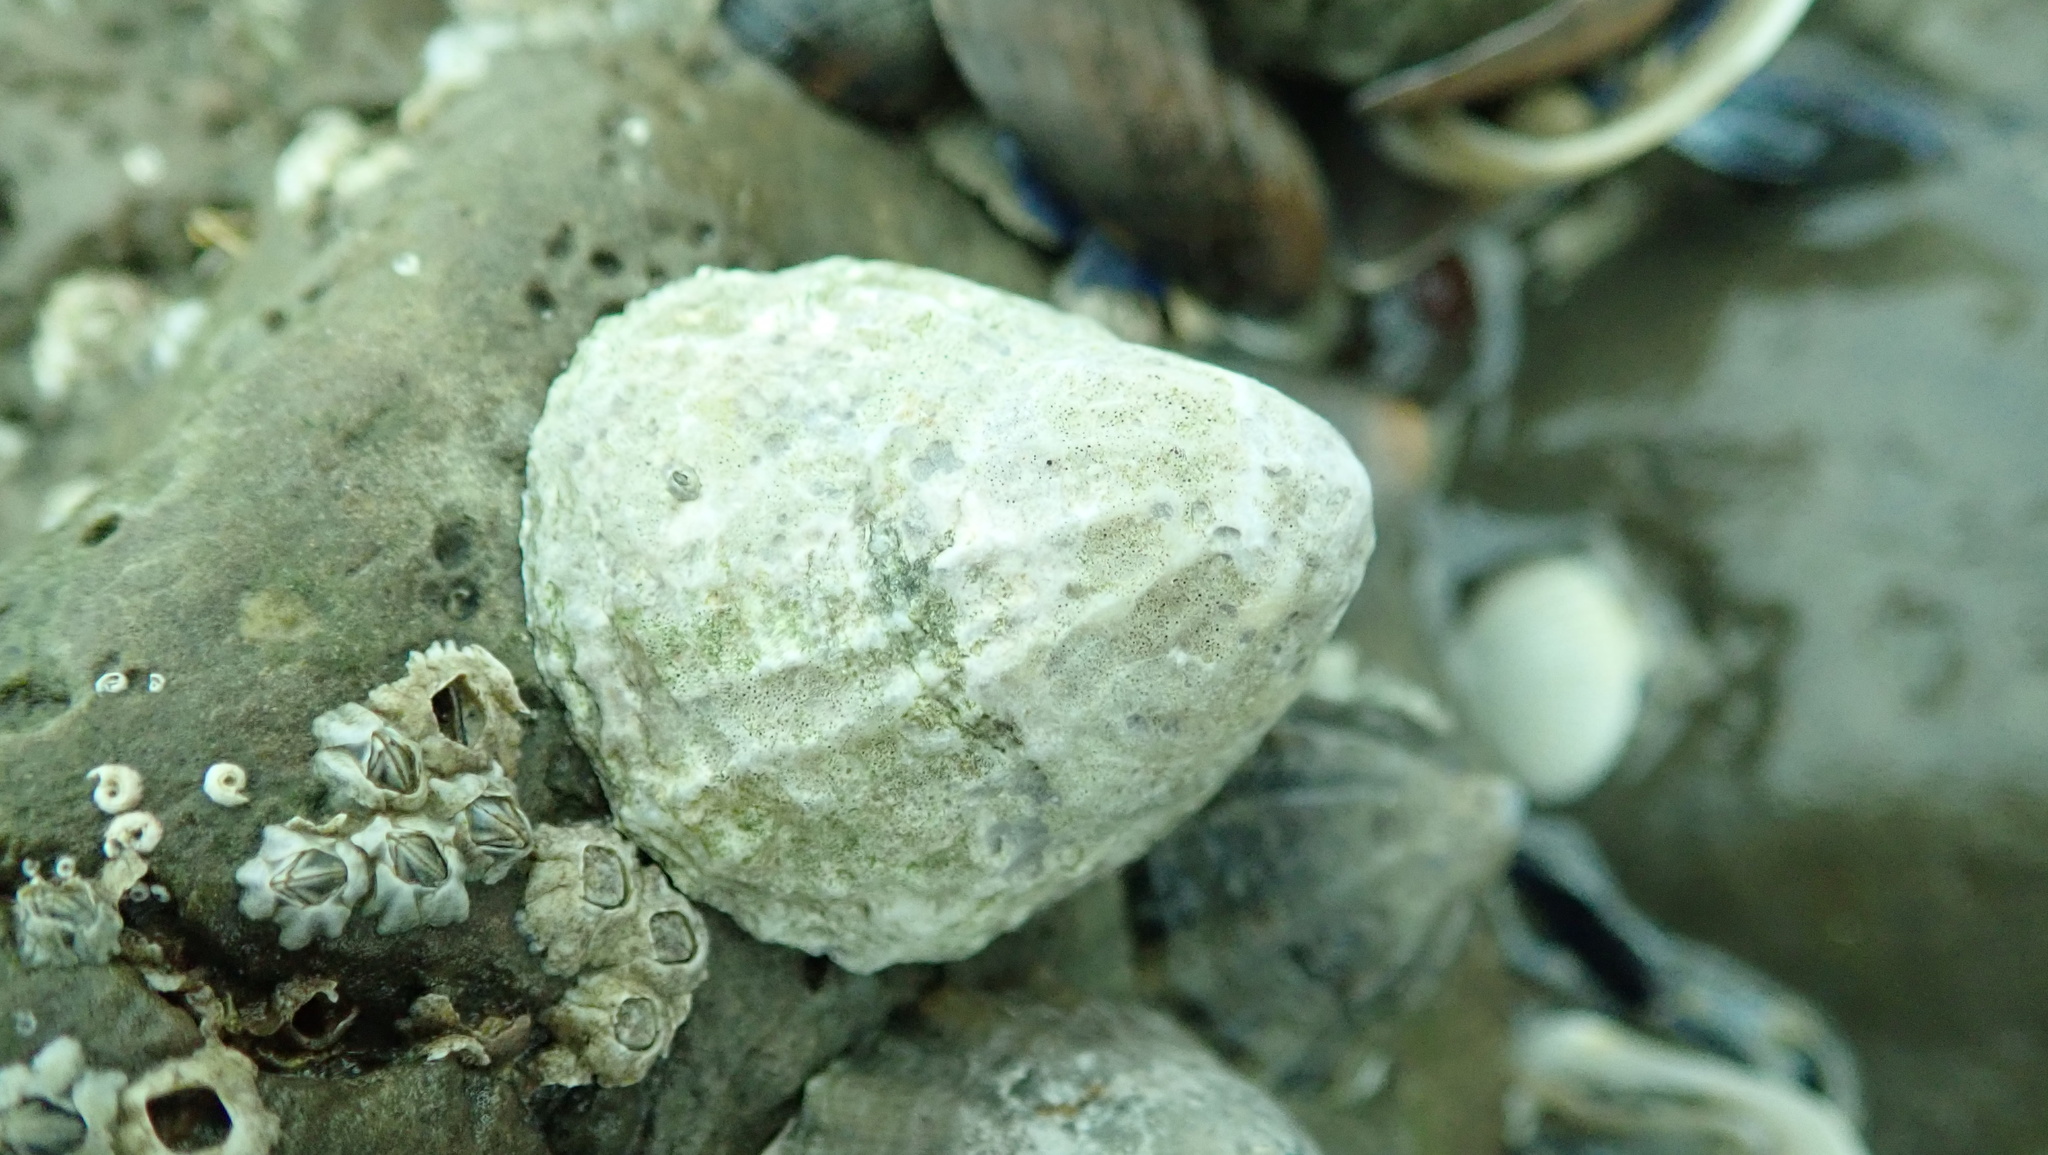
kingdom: Animalia
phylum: Mollusca
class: Gastropoda
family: Patellidae
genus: Patella
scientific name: Patella vulgata
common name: Common limpet
